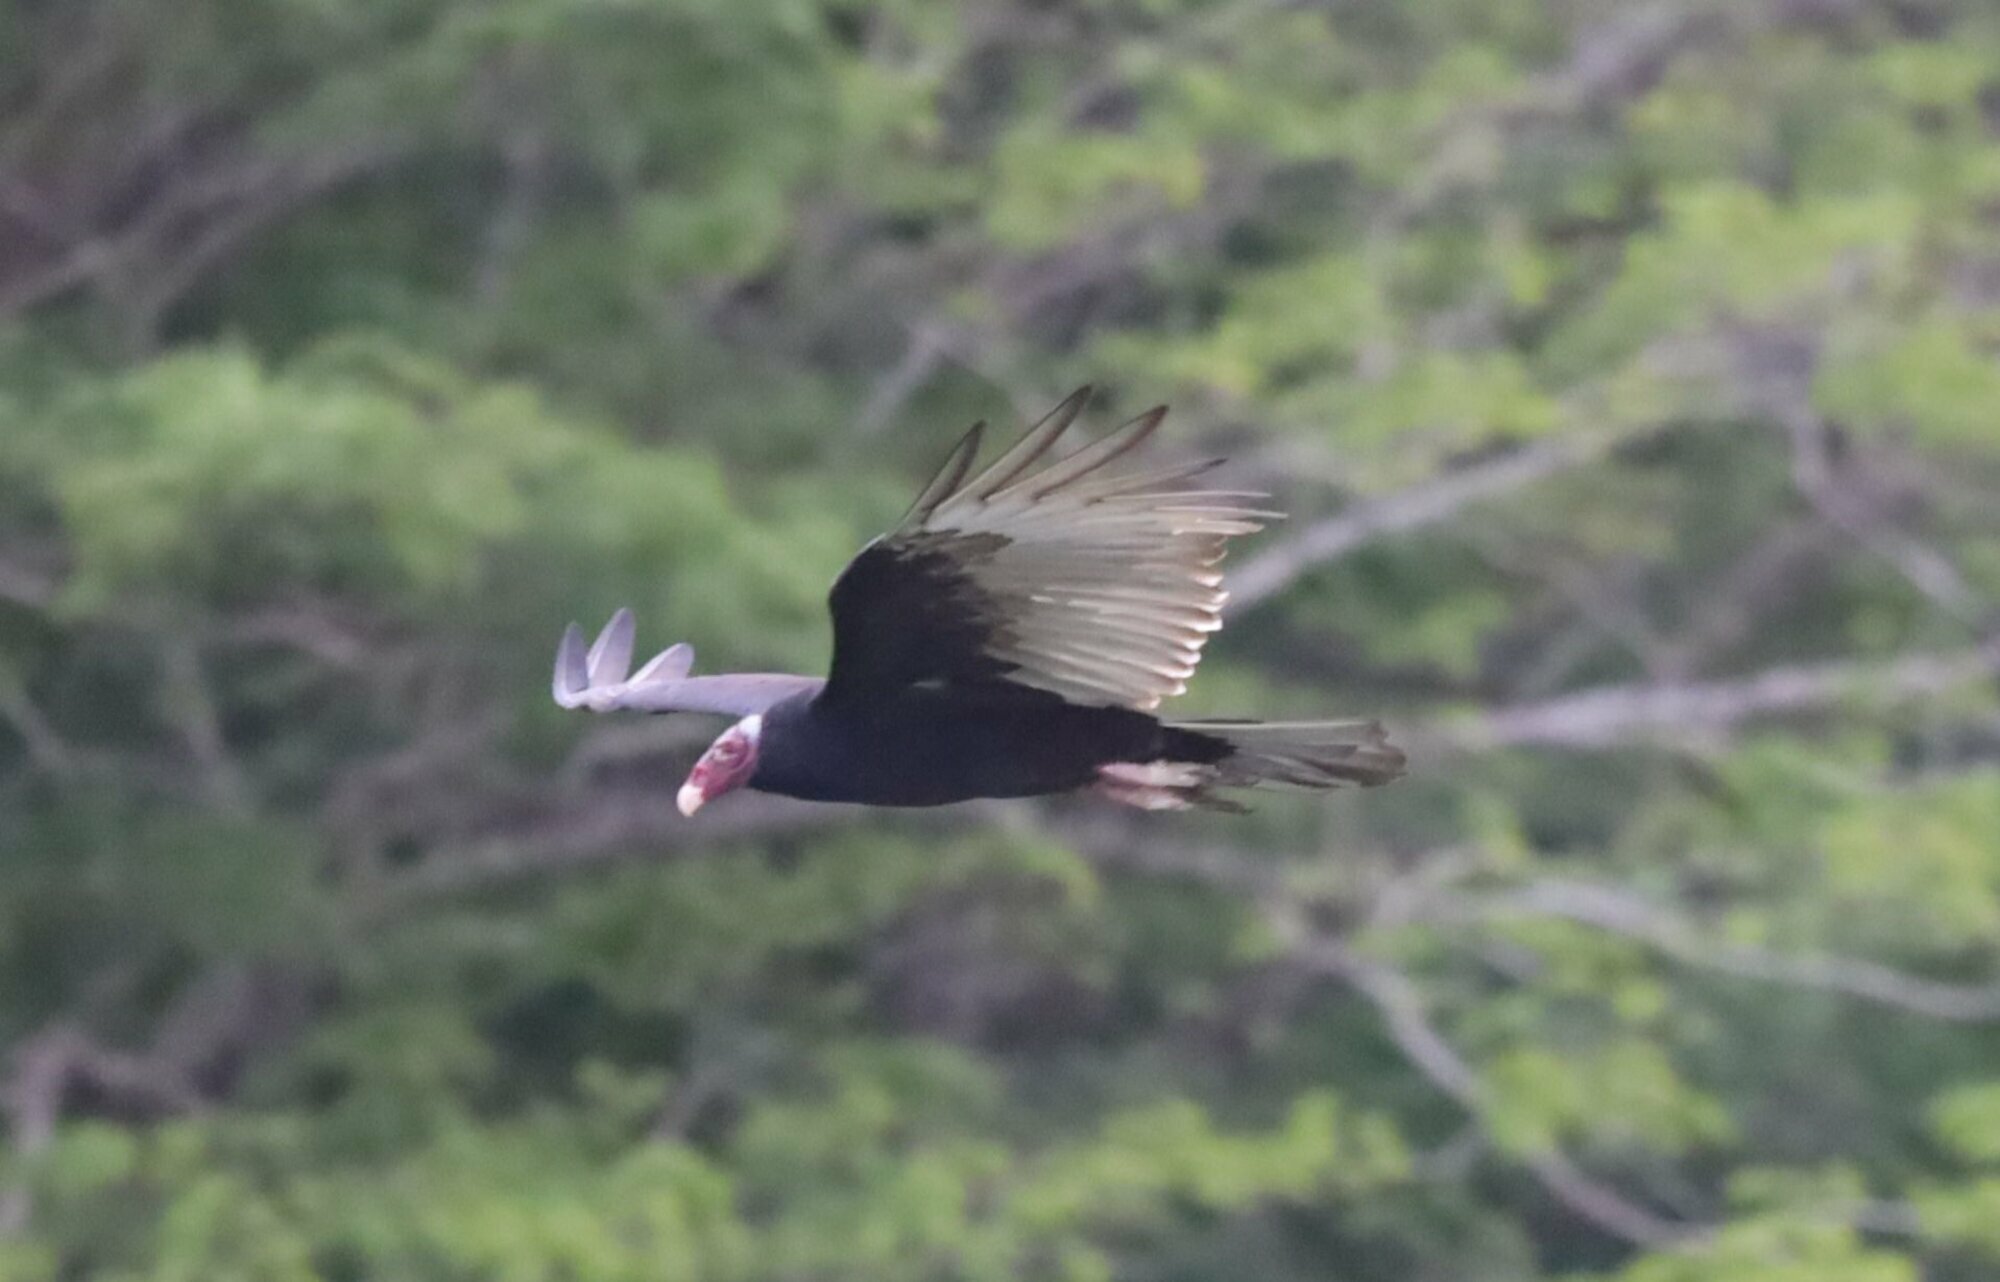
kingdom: Animalia
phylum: Chordata
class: Aves
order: Accipitriformes
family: Cathartidae
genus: Cathartes
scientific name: Cathartes aura
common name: Turkey vulture
